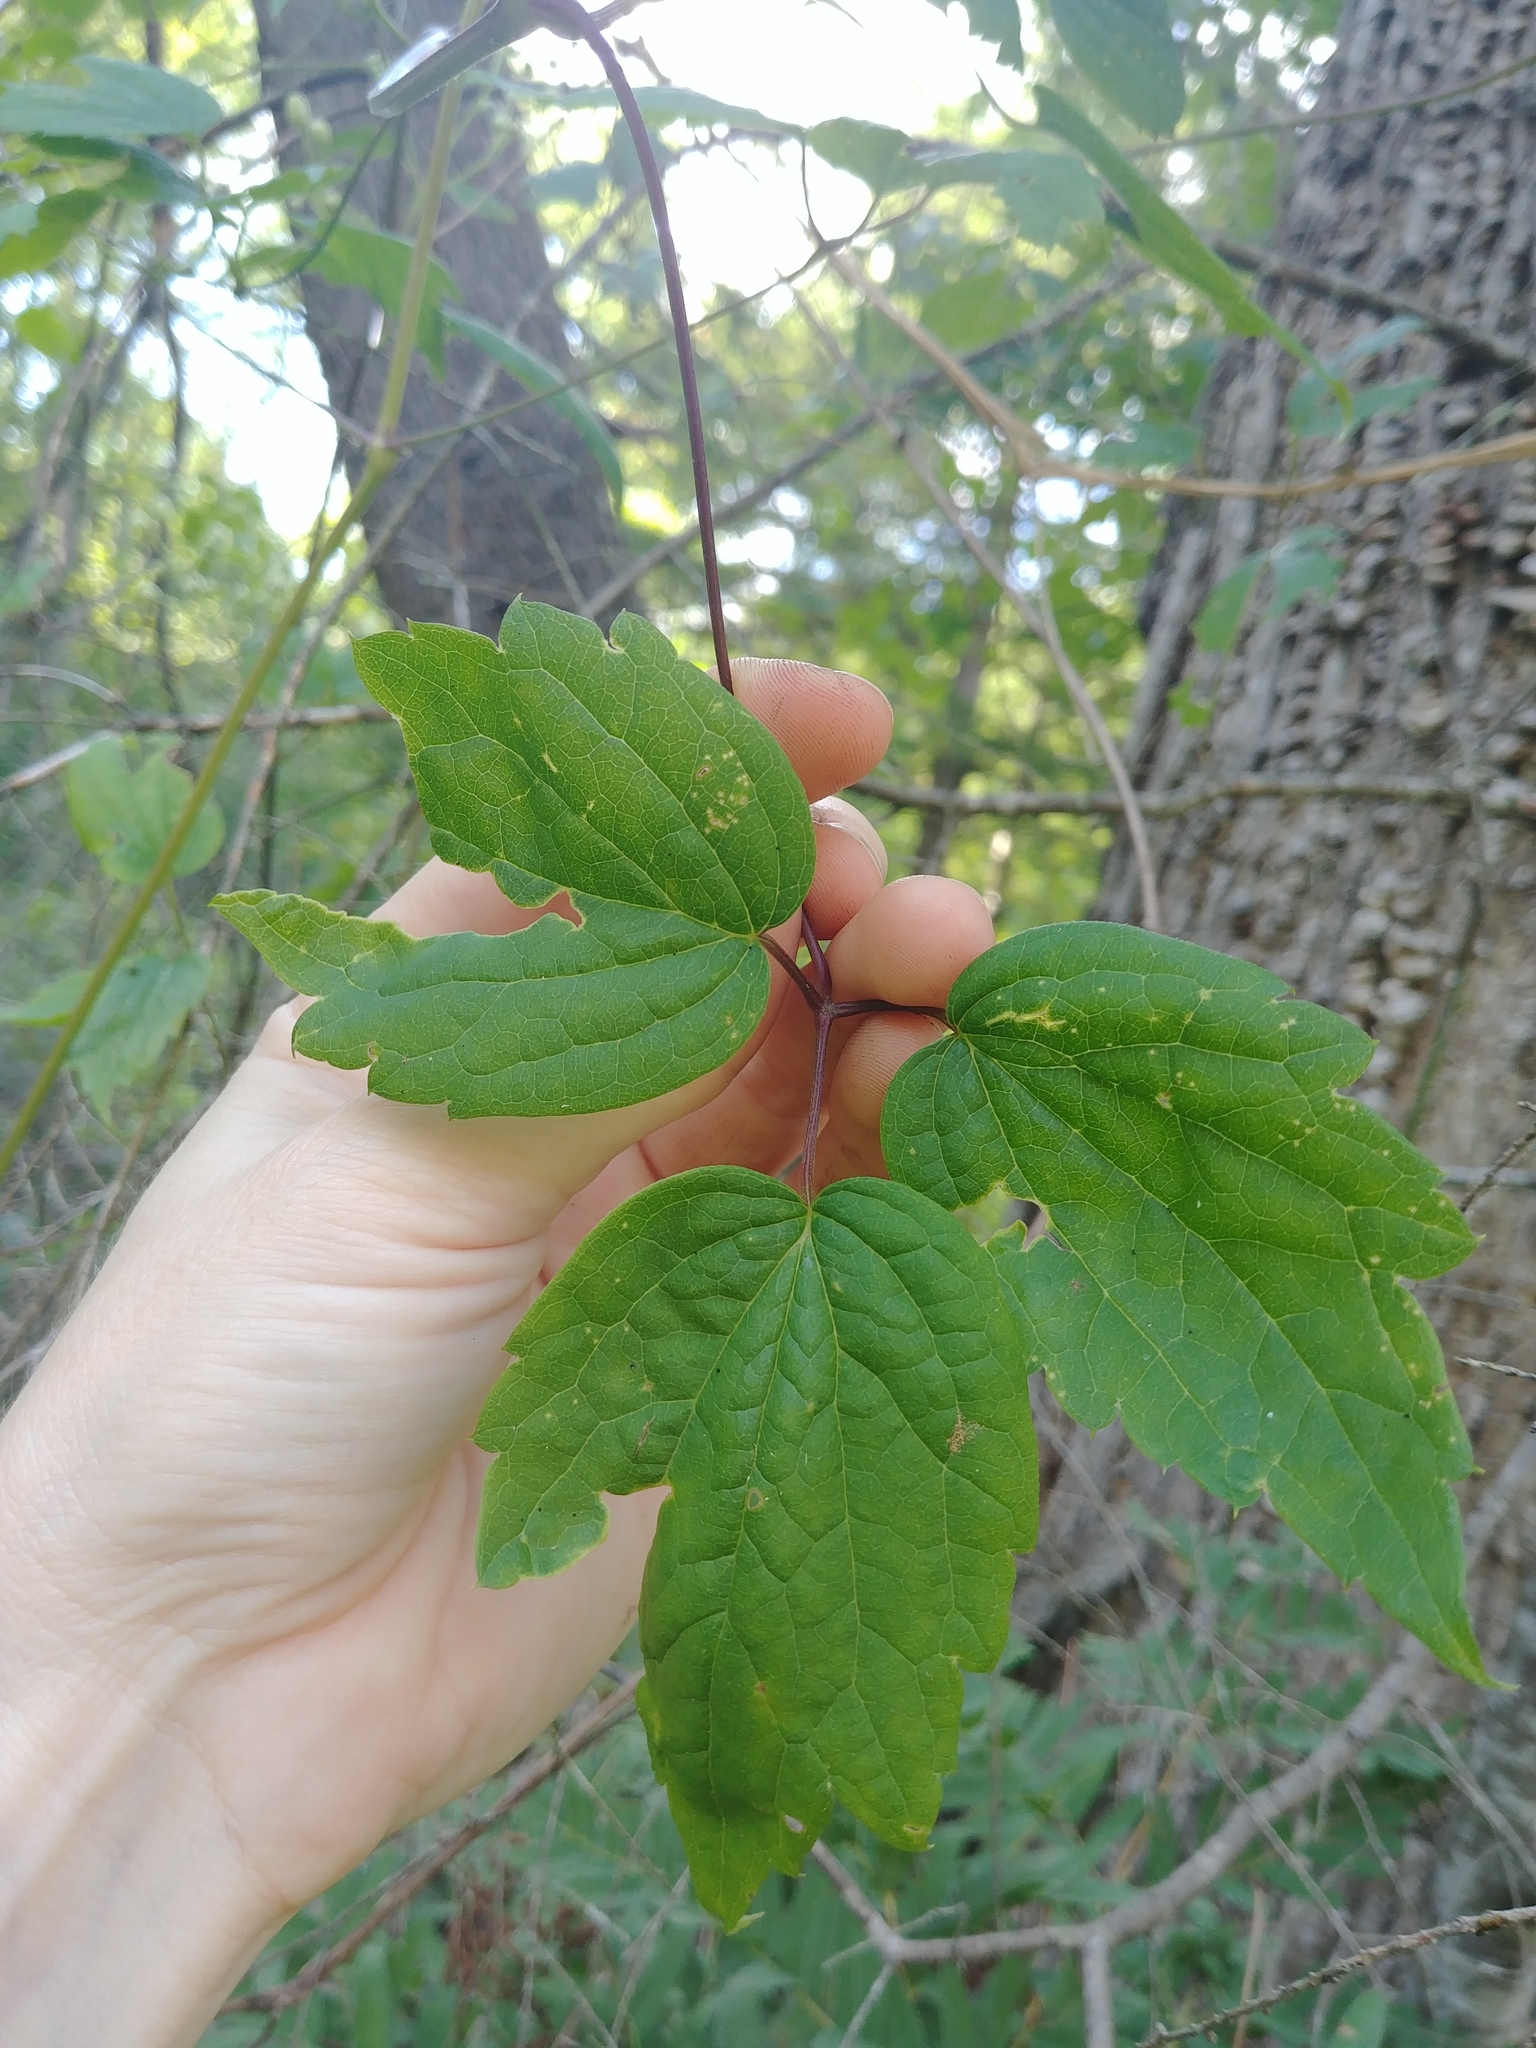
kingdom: Plantae
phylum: Tracheophyta
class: Magnoliopsida
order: Ranunculales
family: Ranunculaceae
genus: Clematis
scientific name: Clematis virginiana
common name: Virgin's-bower
